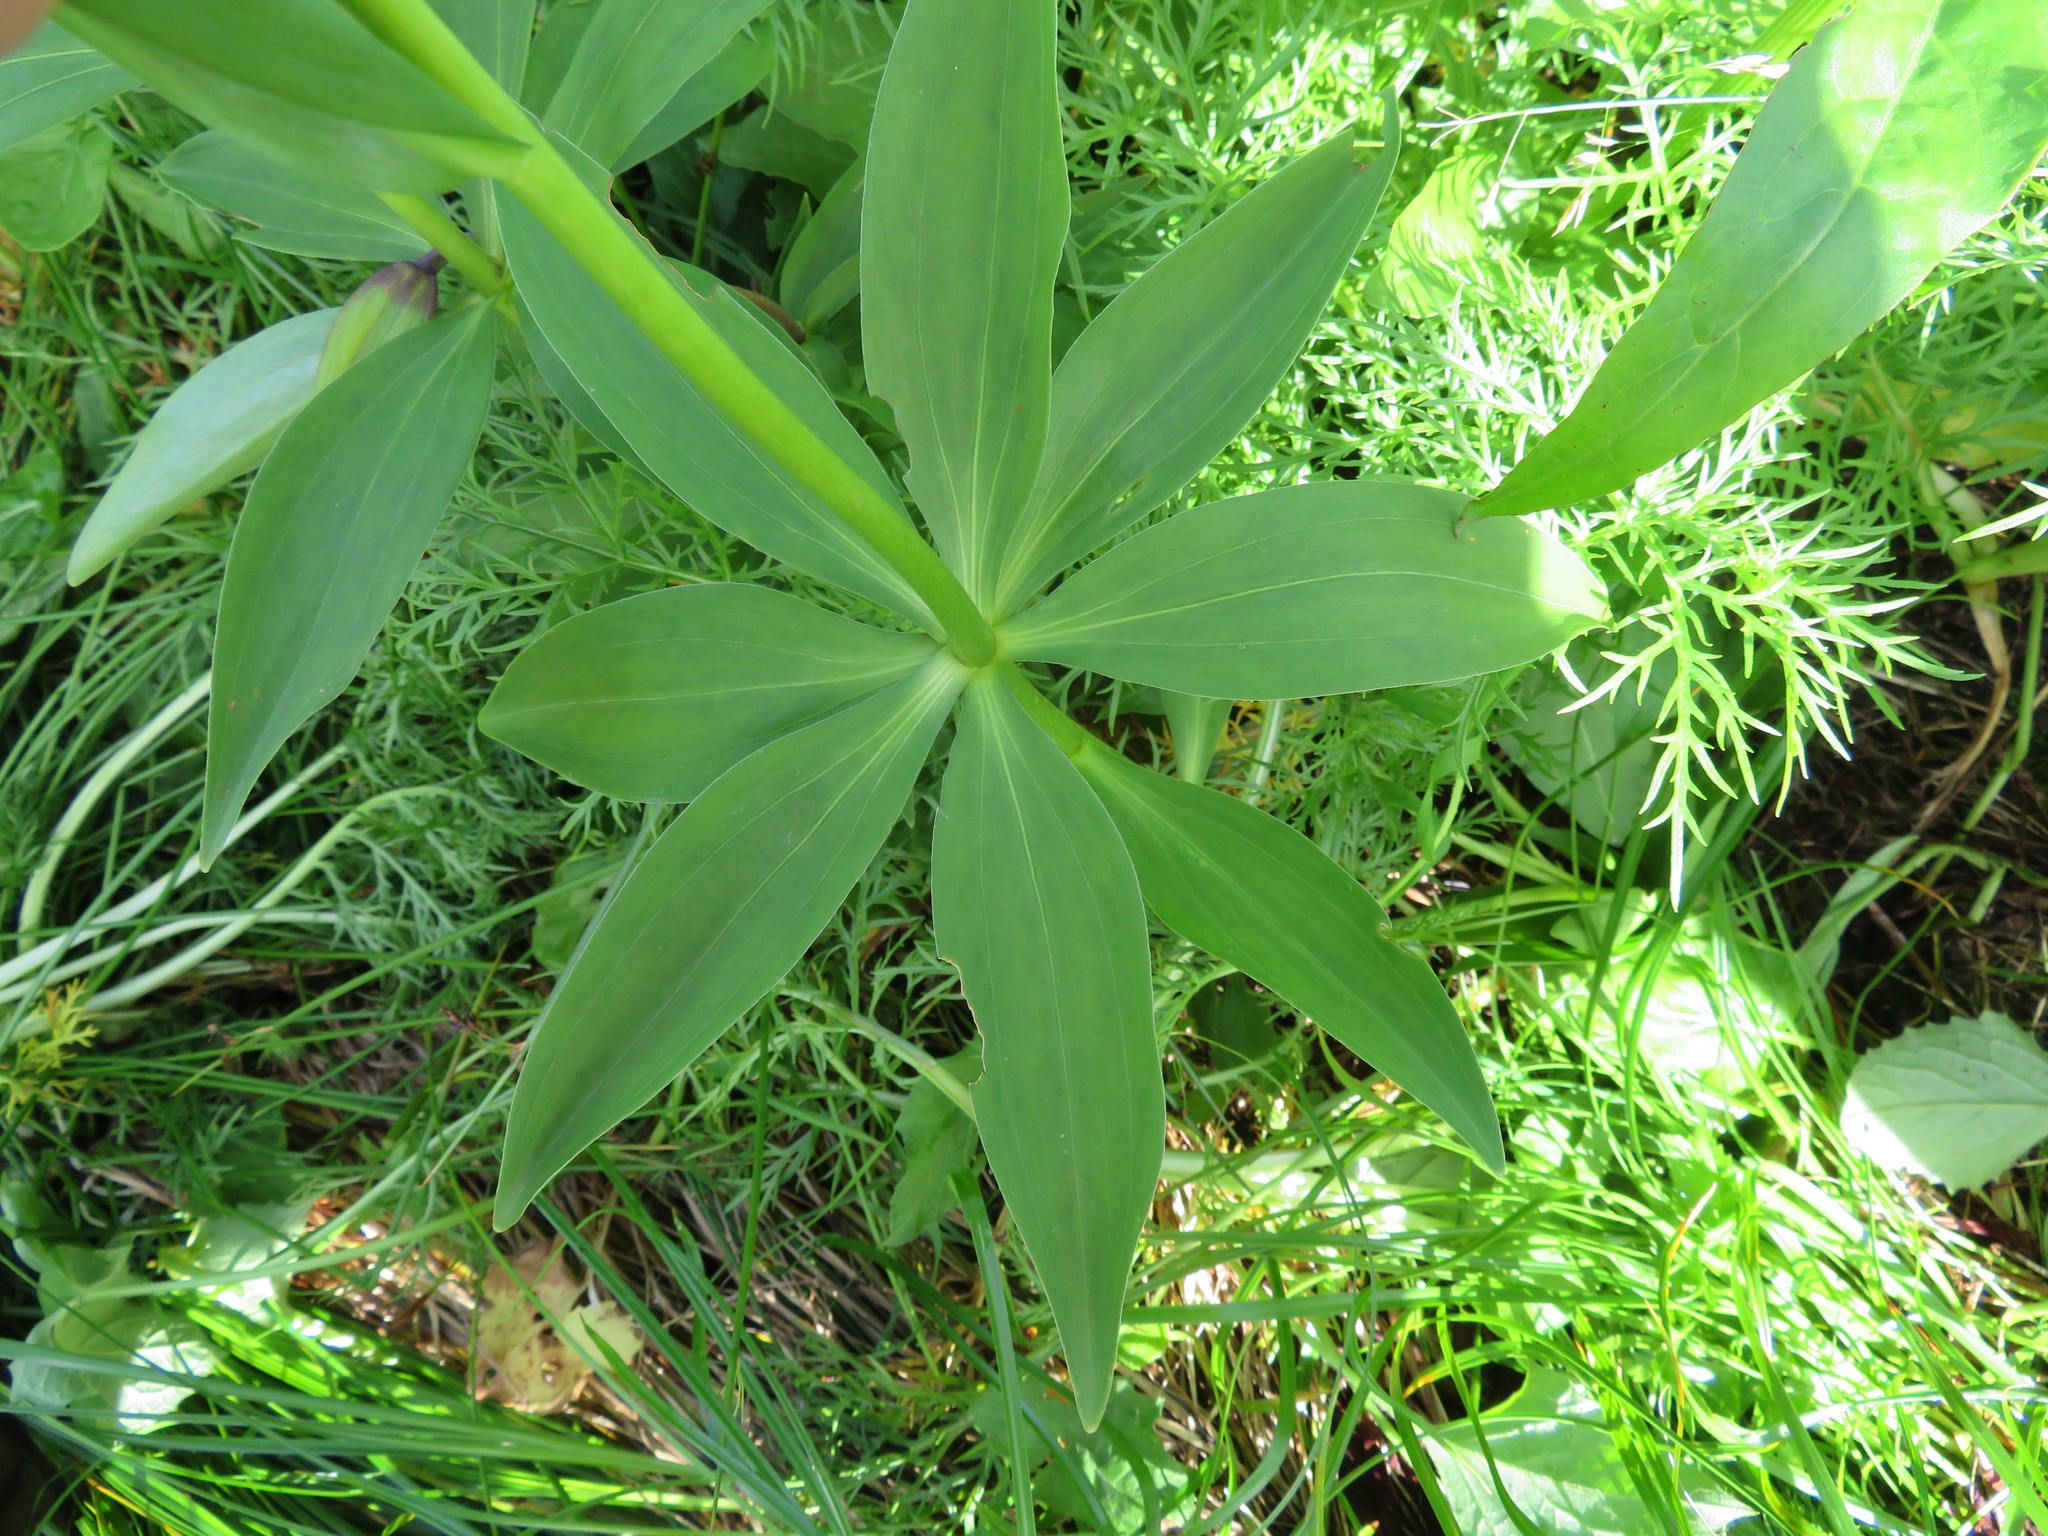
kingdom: Plantae
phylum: Tracheophyta
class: Liliopsida
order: Liliales
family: Liliaceae
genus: Lilium
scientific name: Lilium medeoloides
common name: Wheel lily
